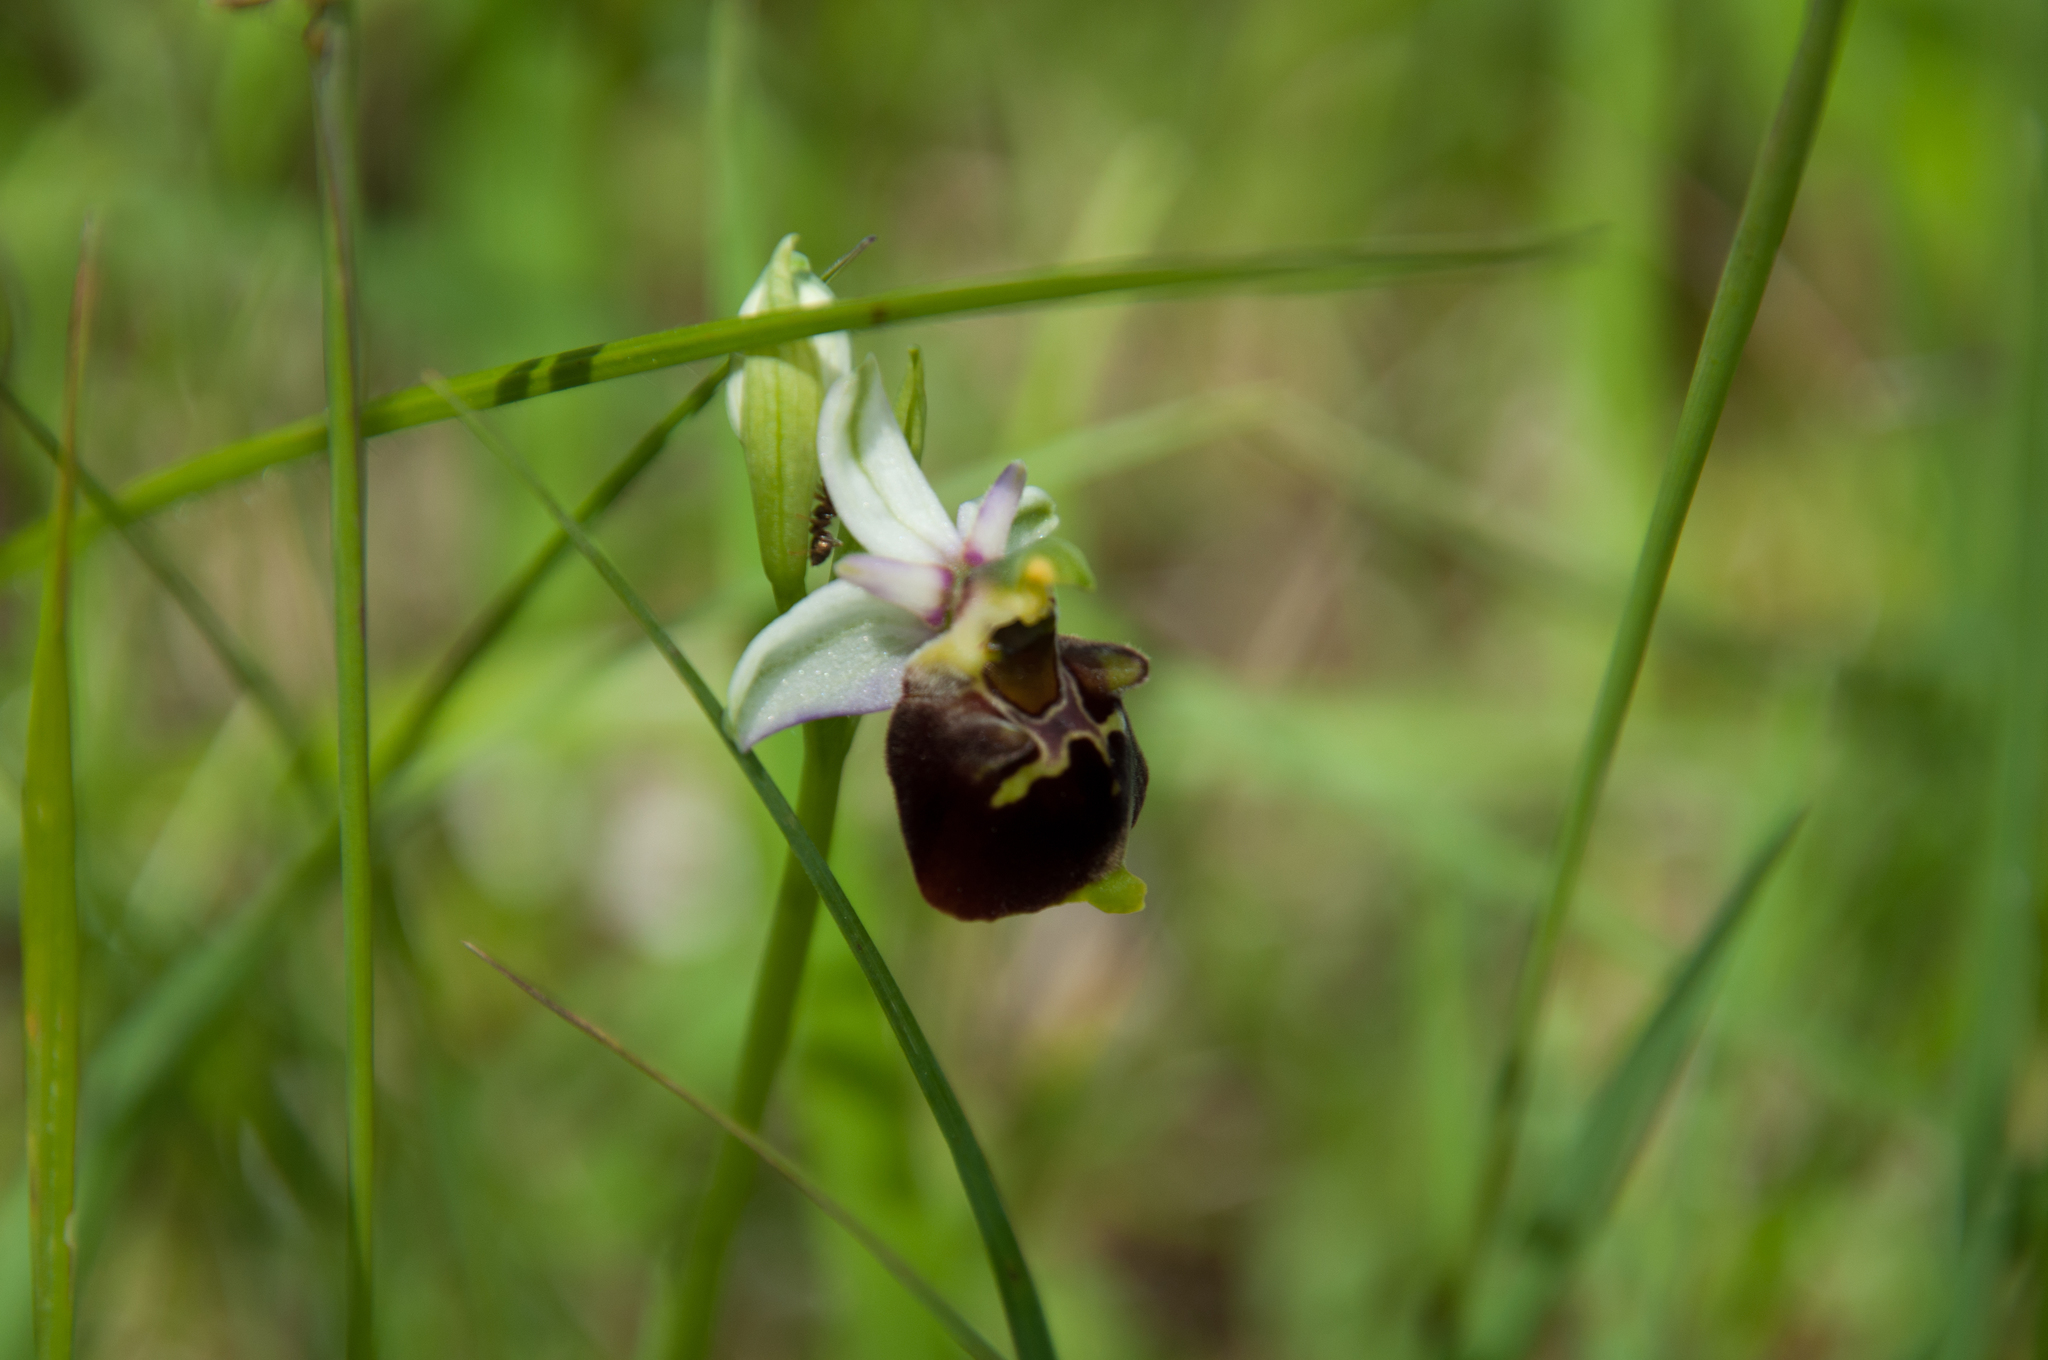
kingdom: Plantae
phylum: Tracheophyta
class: Liliopsida
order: Asparagales
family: Orchidaceae
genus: Ophrys
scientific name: Ophrys holosericea
